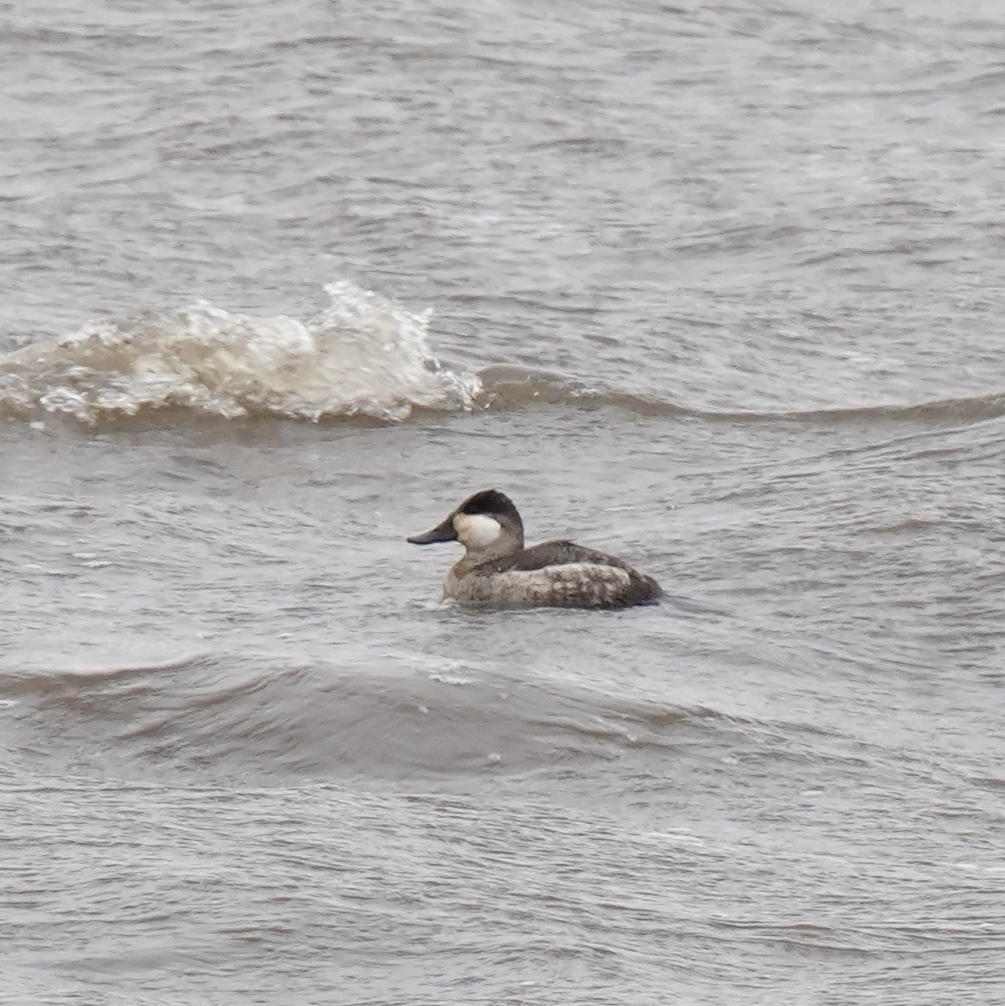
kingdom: Animalia
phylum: Chordata
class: Aves
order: Anseriformes
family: Anatidae
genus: Oxyura
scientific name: Oxyura jamaicensis
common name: Ruddy duck
